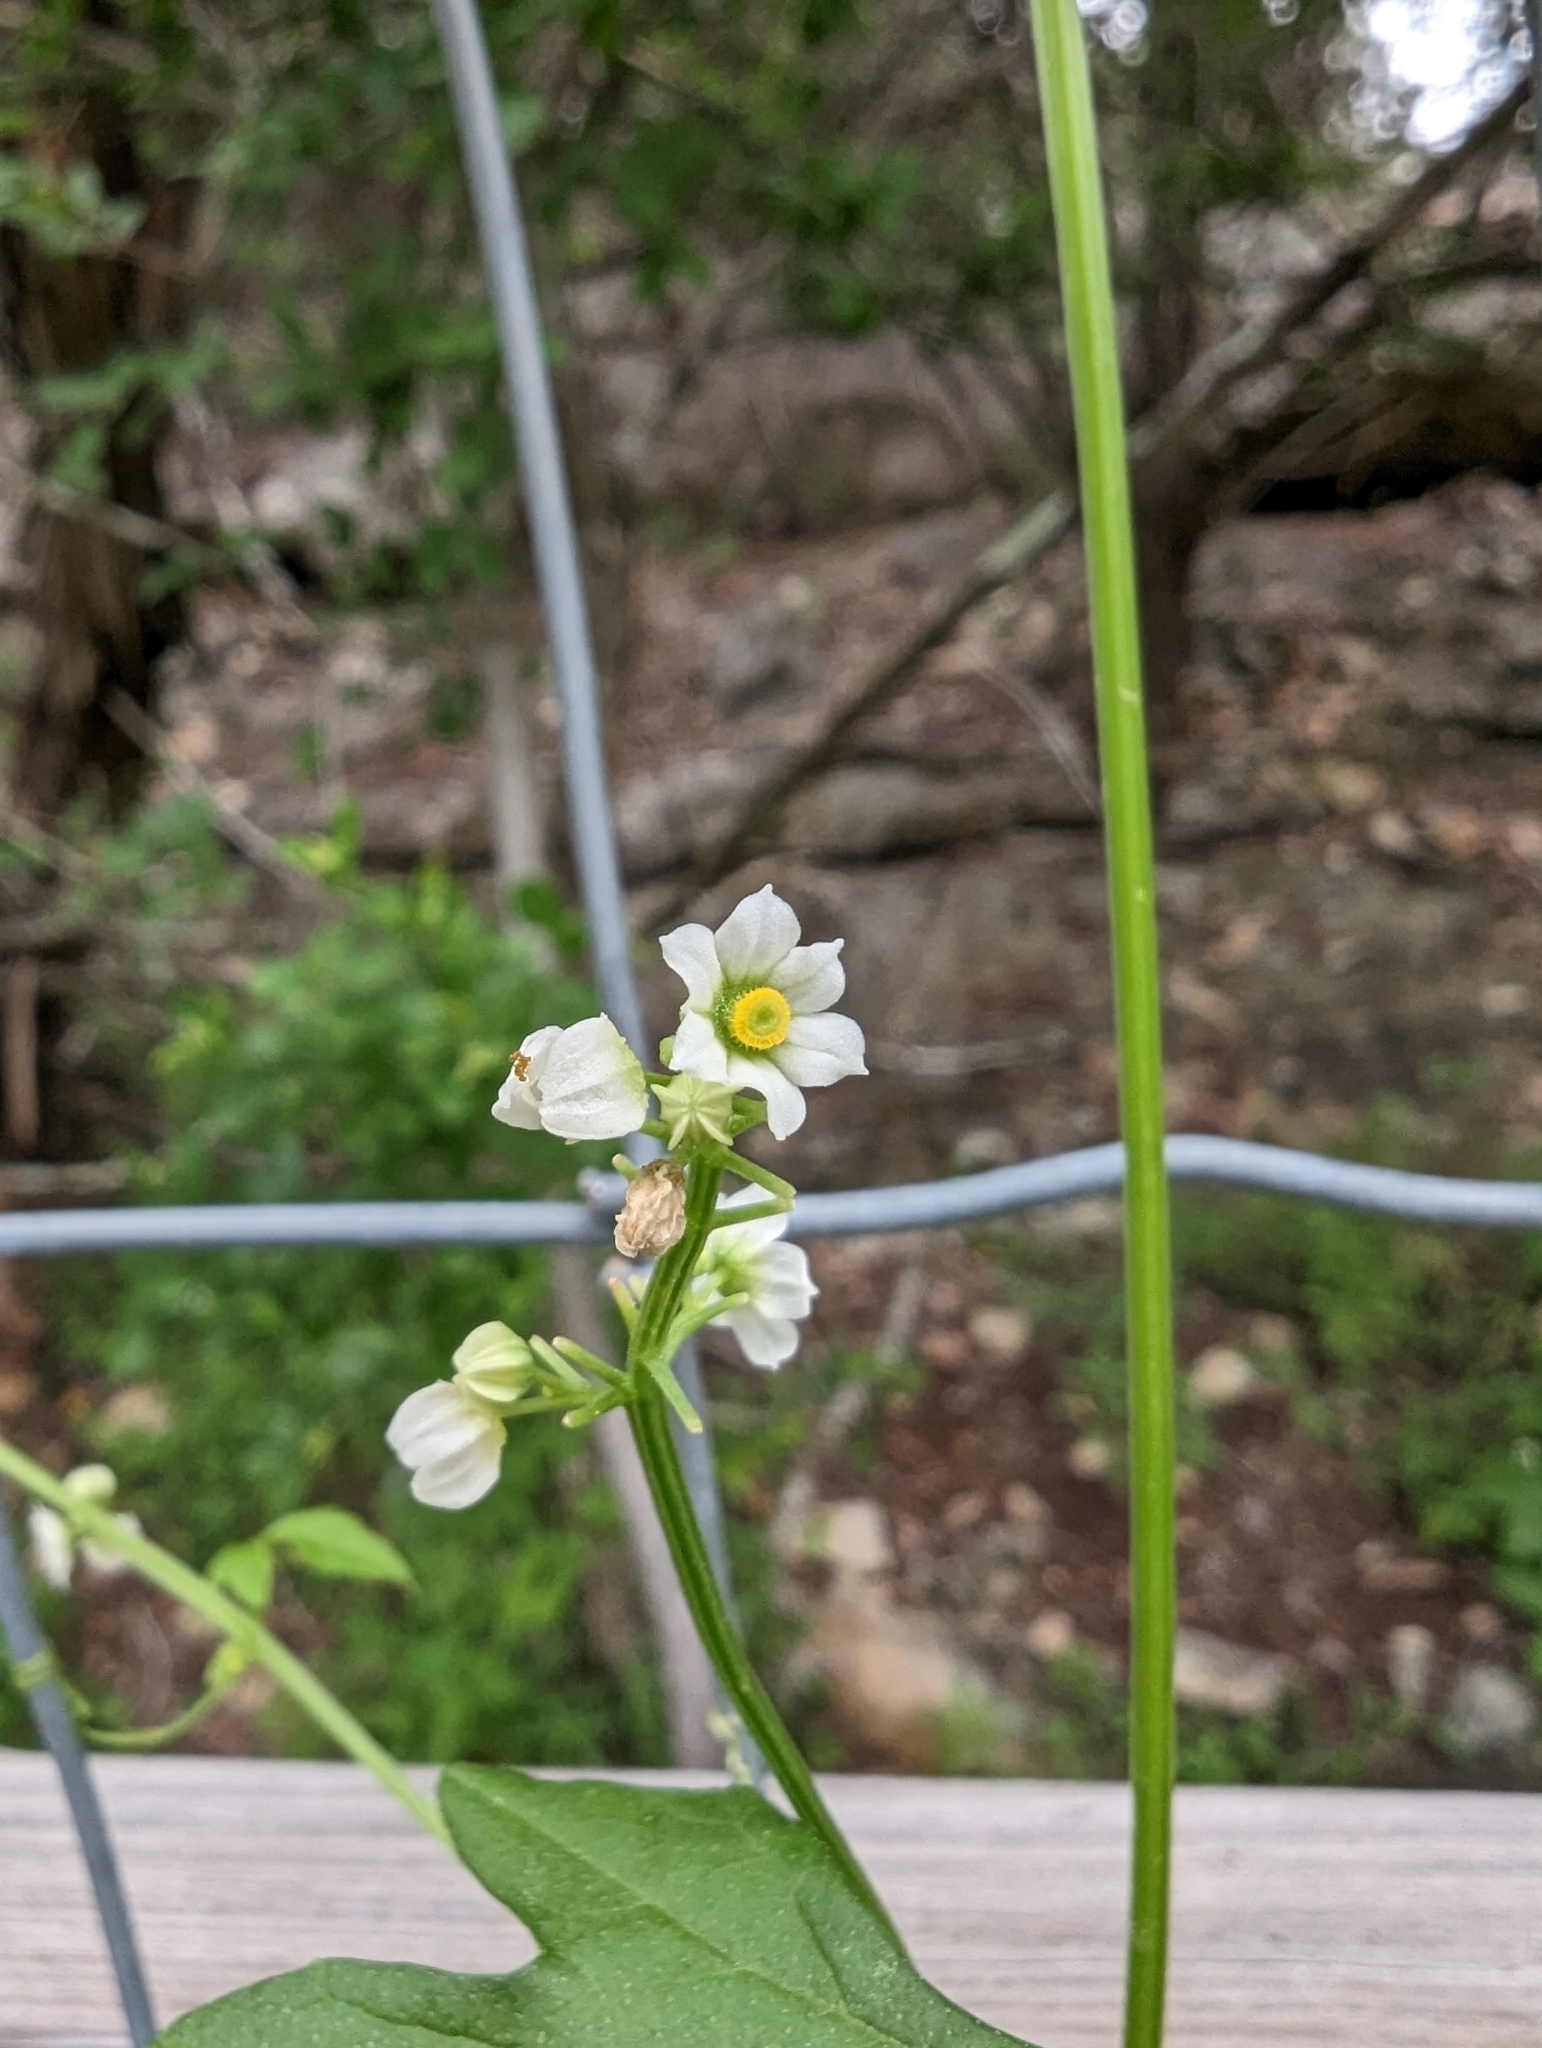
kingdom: Plantae
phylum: Tracheophyta
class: Magnoliopsida
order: Cucurbitales
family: Cucurbitaceae
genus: Cyclanthera
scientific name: Cyclanthera naudiniana
